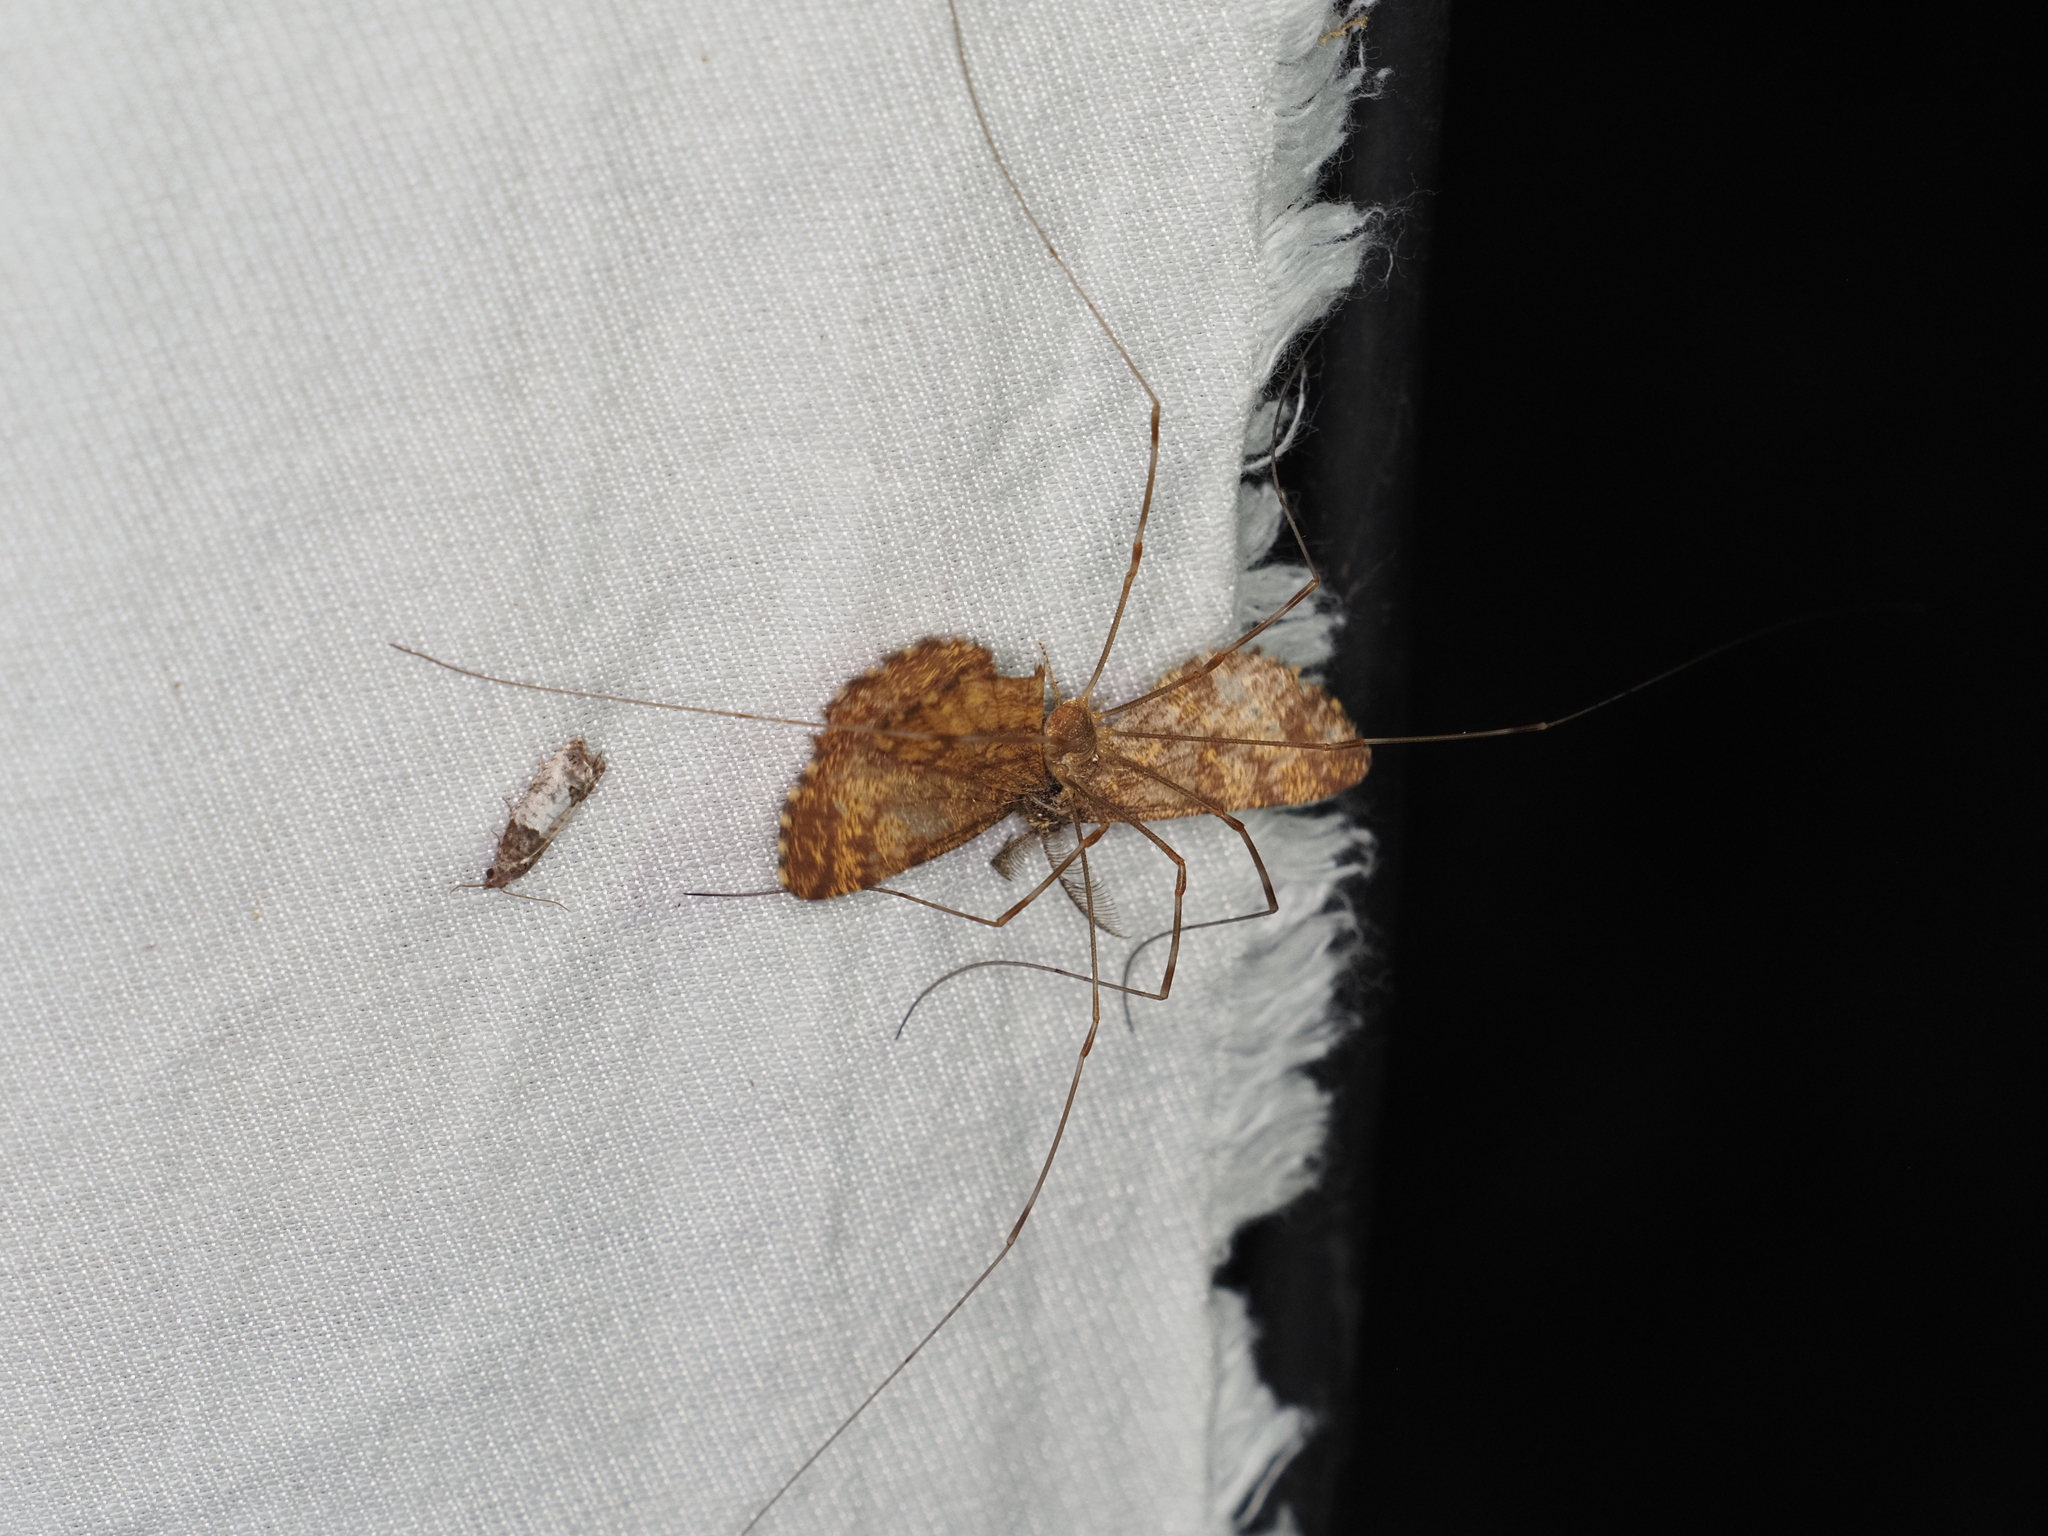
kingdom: Animalia
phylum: Arthropoda
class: Arachnida
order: Opiliones
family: Phalangiidae
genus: Opilio
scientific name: Opilio canestrinii
